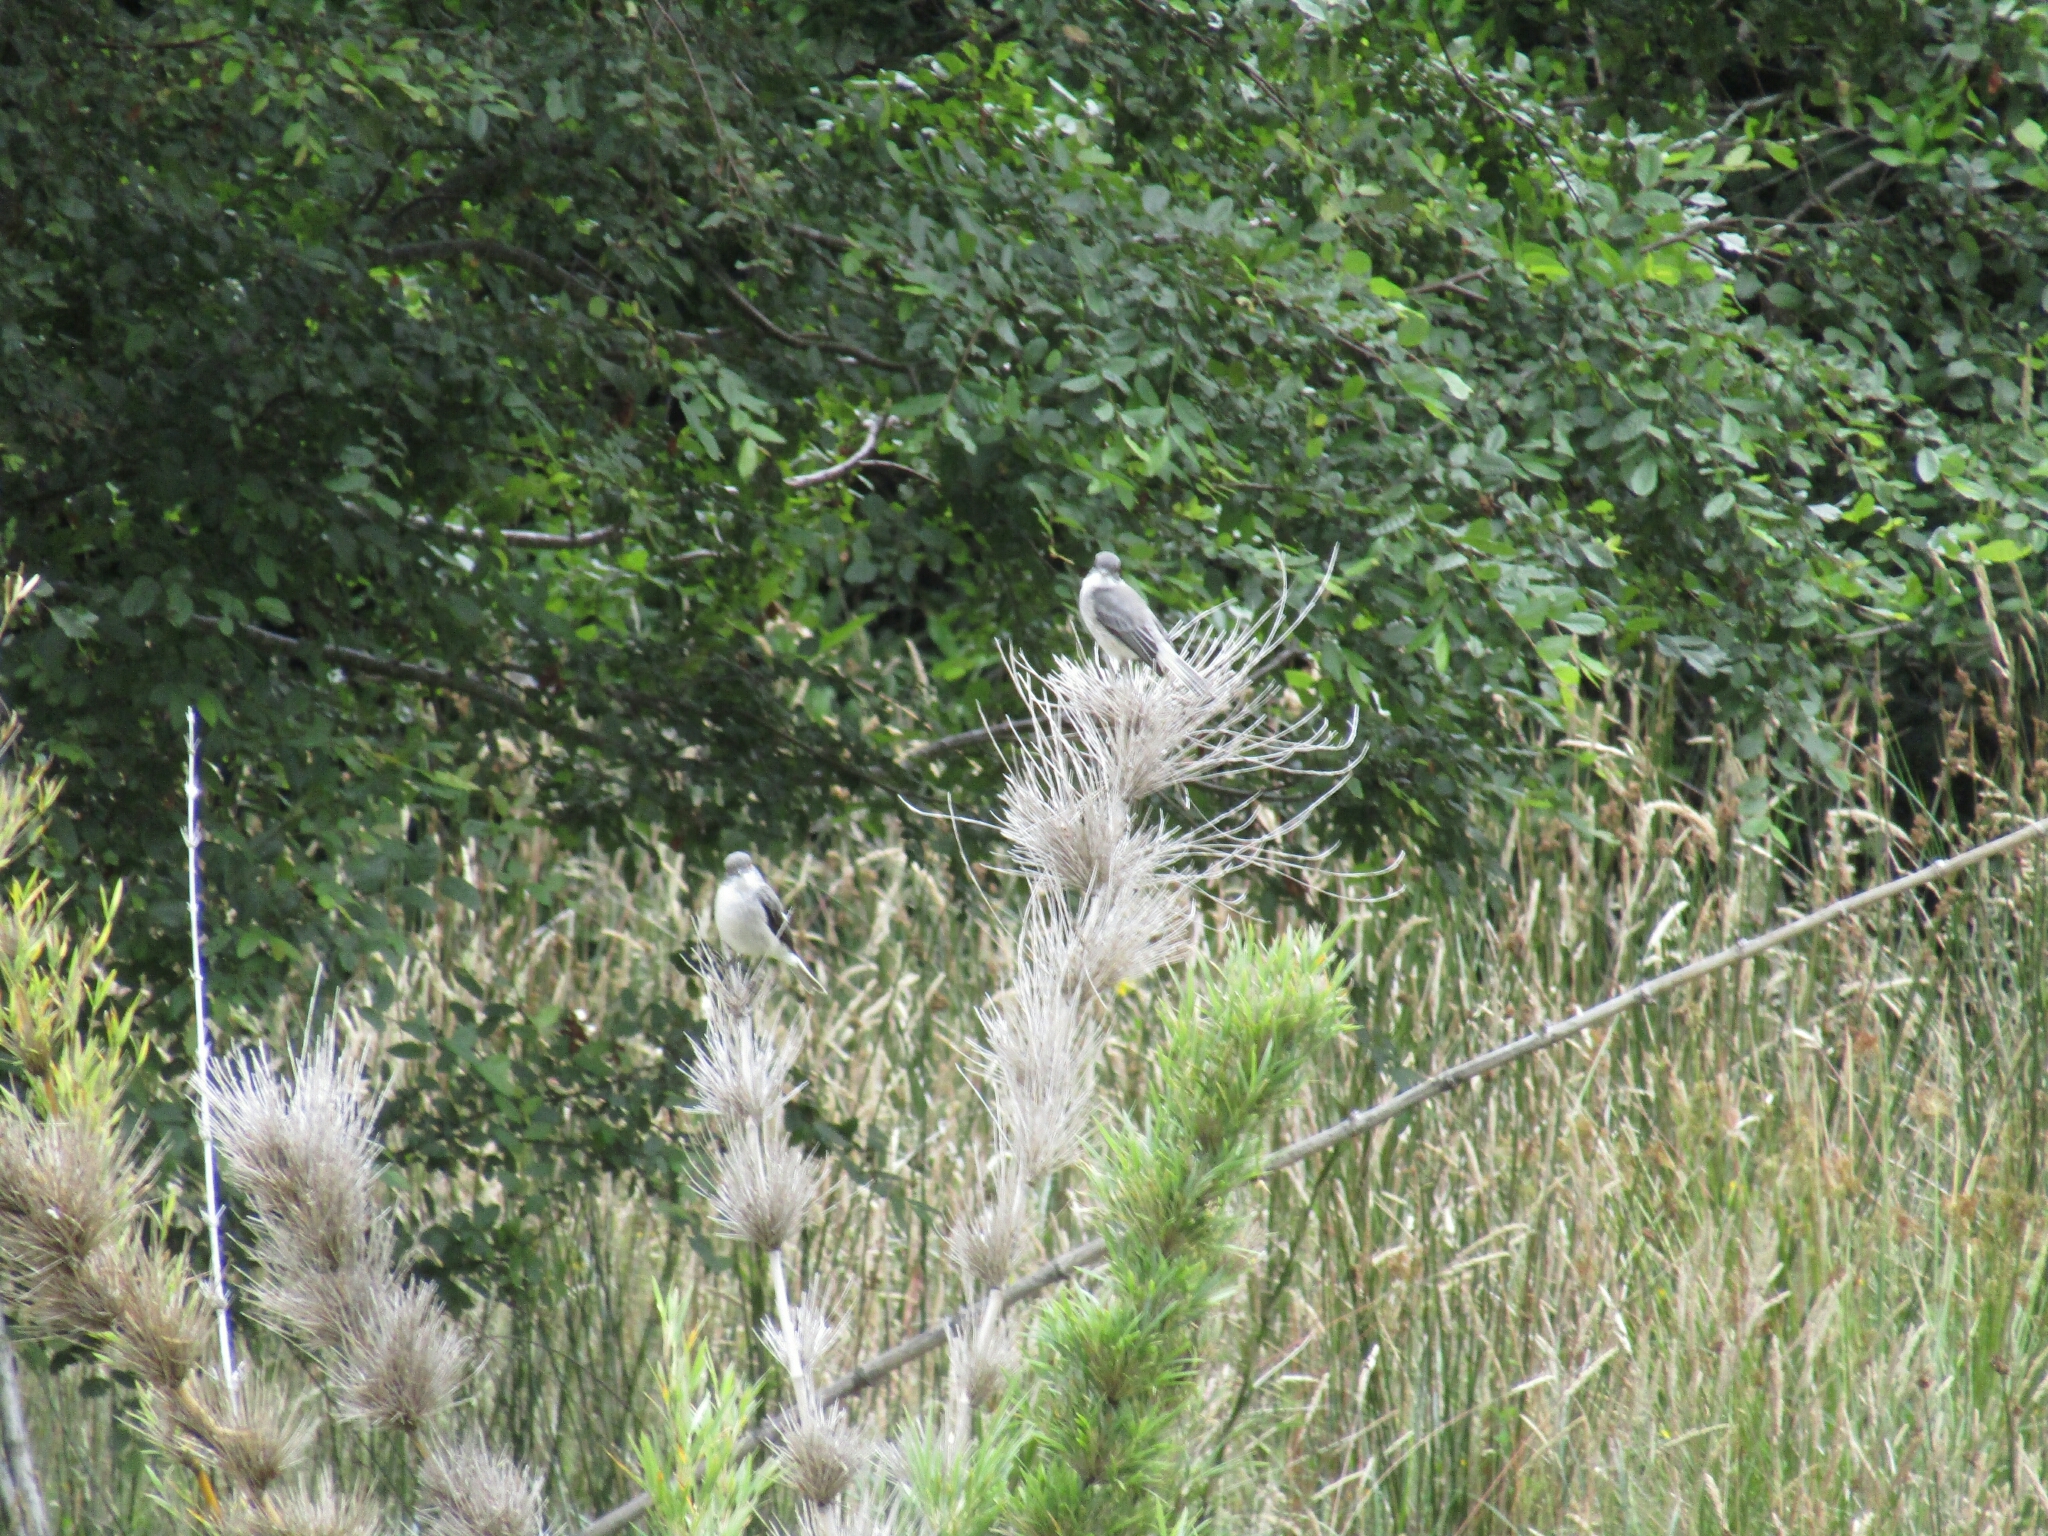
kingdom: Animalia
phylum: Chordata
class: Aves
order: Passeriformes
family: Tyrannidae
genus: Xolmis
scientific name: Xolmis pyrope
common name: Fire-eyed diucon
